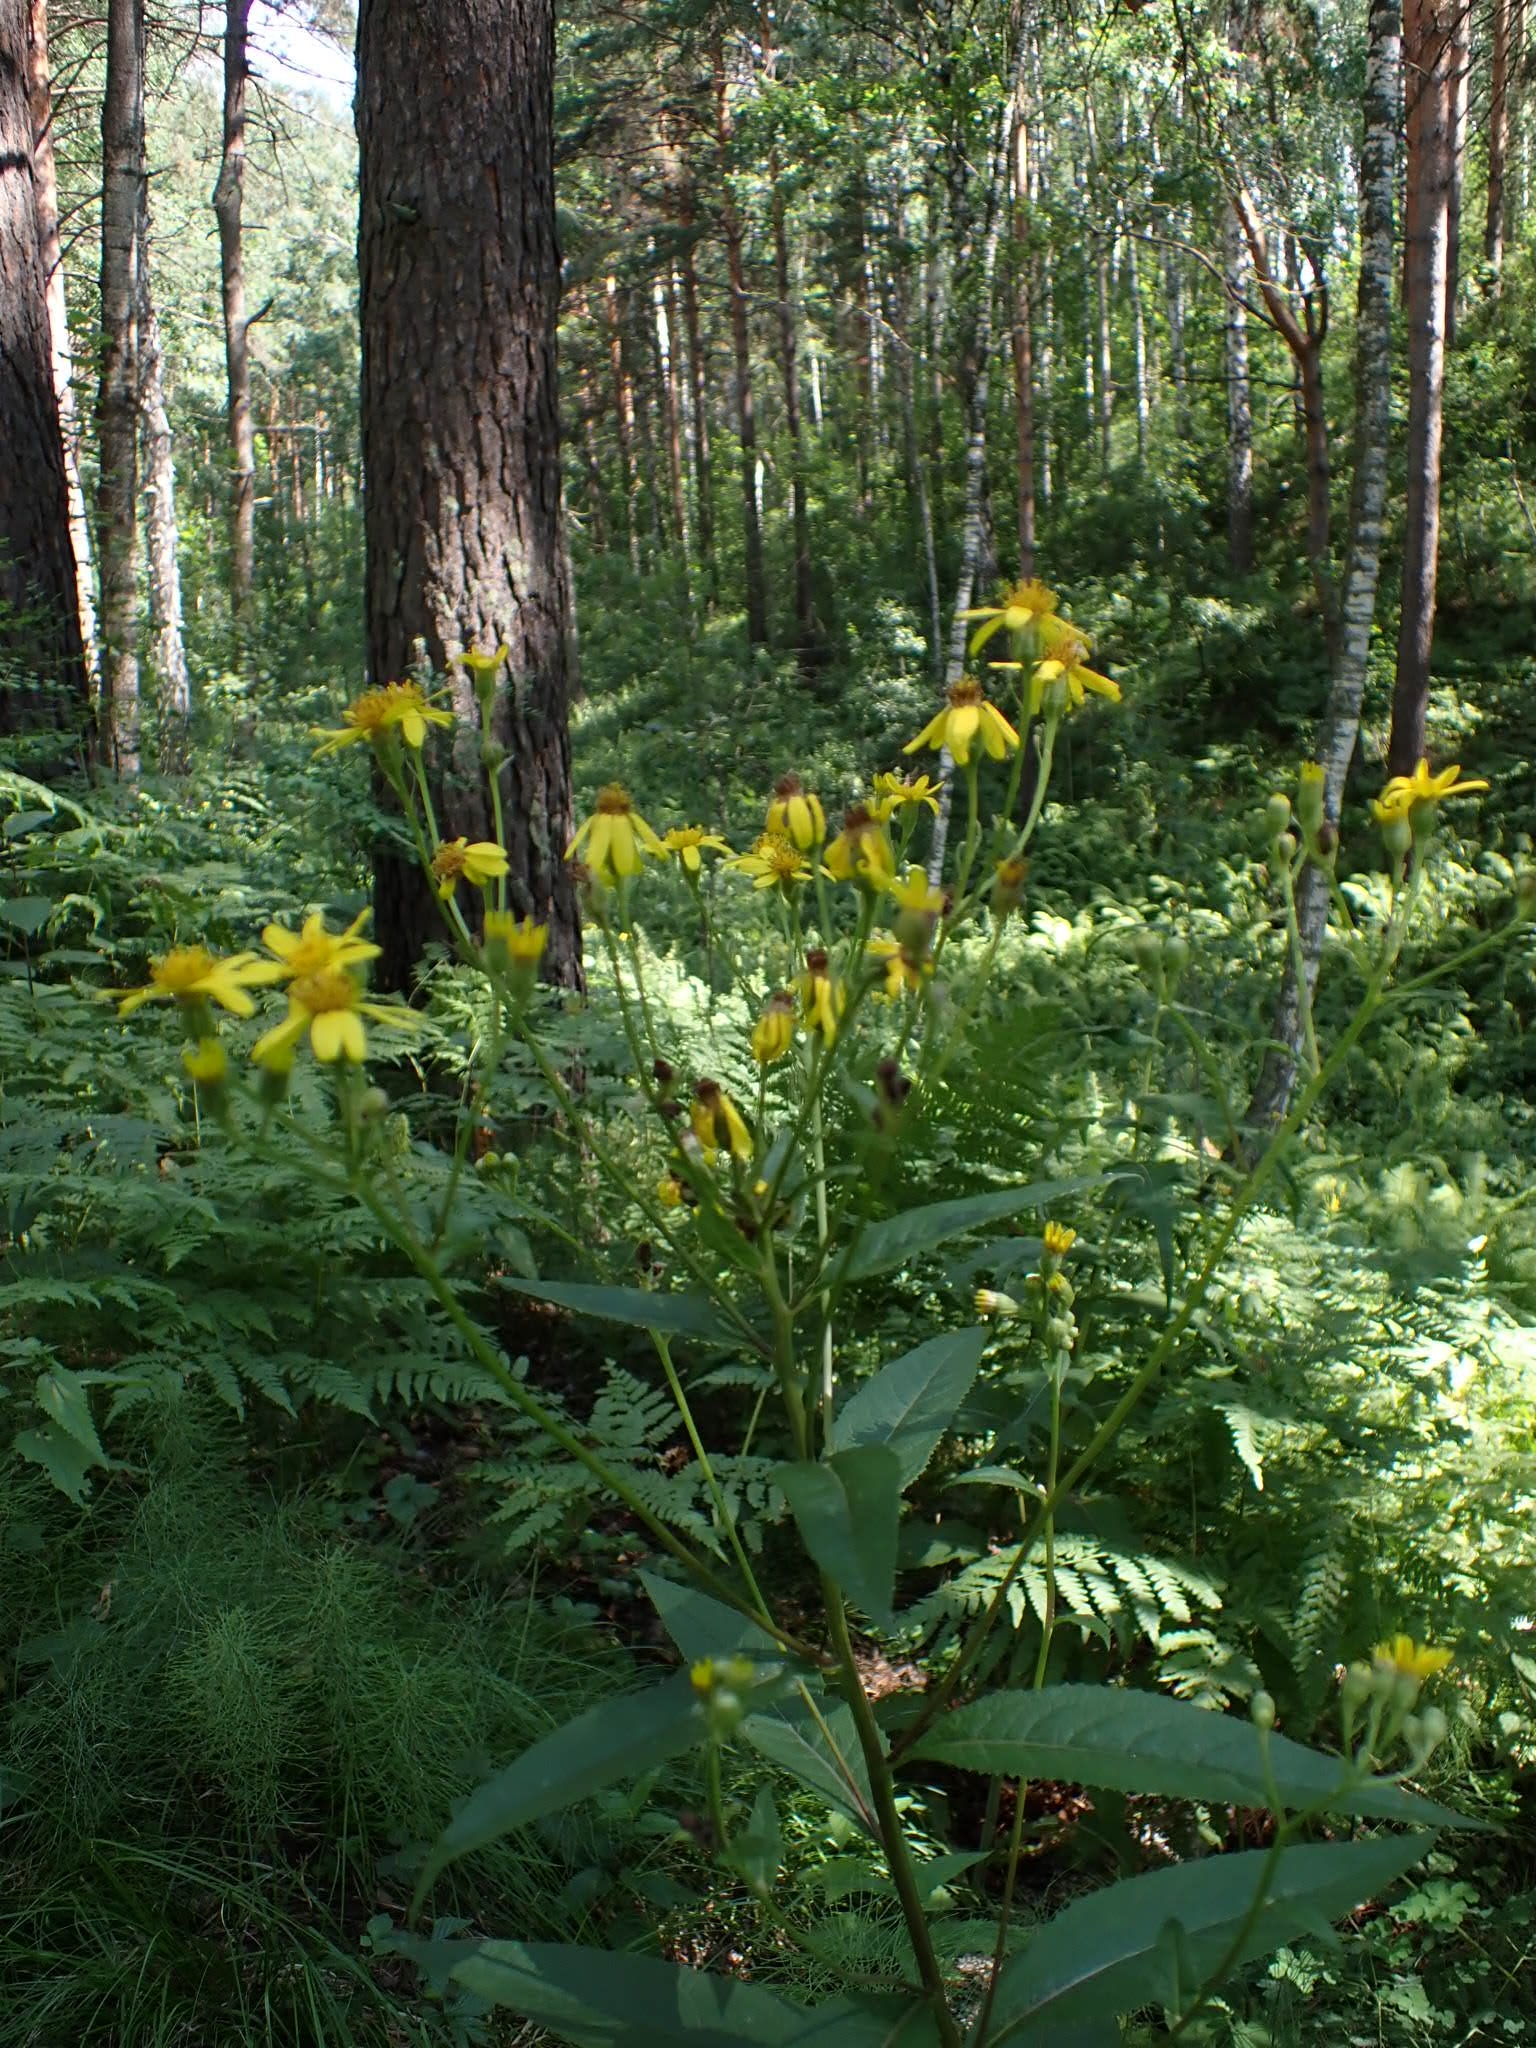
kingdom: Plantae
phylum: Tracheophyta
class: Magnoliopsida
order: Asterales
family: Asteraceae
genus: Senecio
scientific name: Senecio nemorensis
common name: Alpine ragwort
